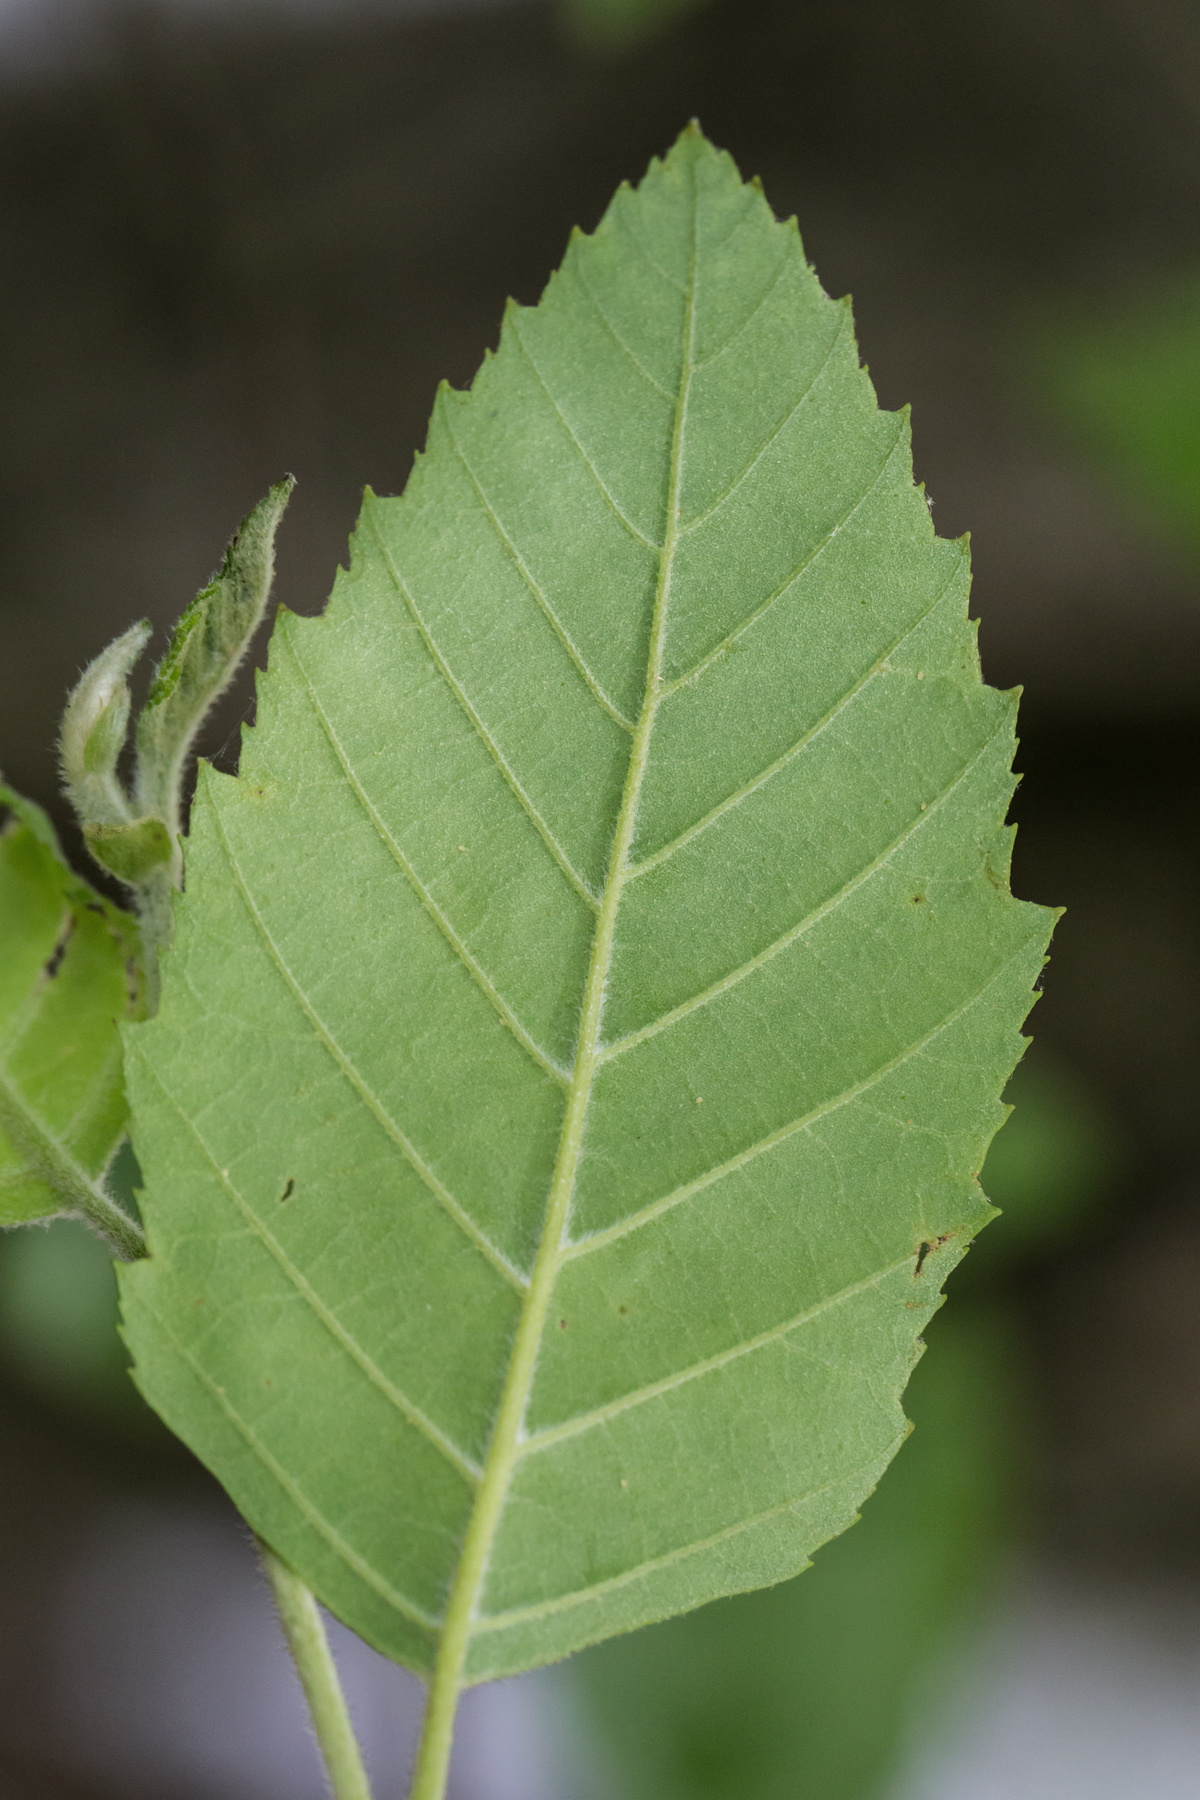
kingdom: Plantae
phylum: Tracheophyta
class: Magnoliopsida
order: Fagales
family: Betulaceae
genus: Betula
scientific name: Betula nigra
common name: Black birch
